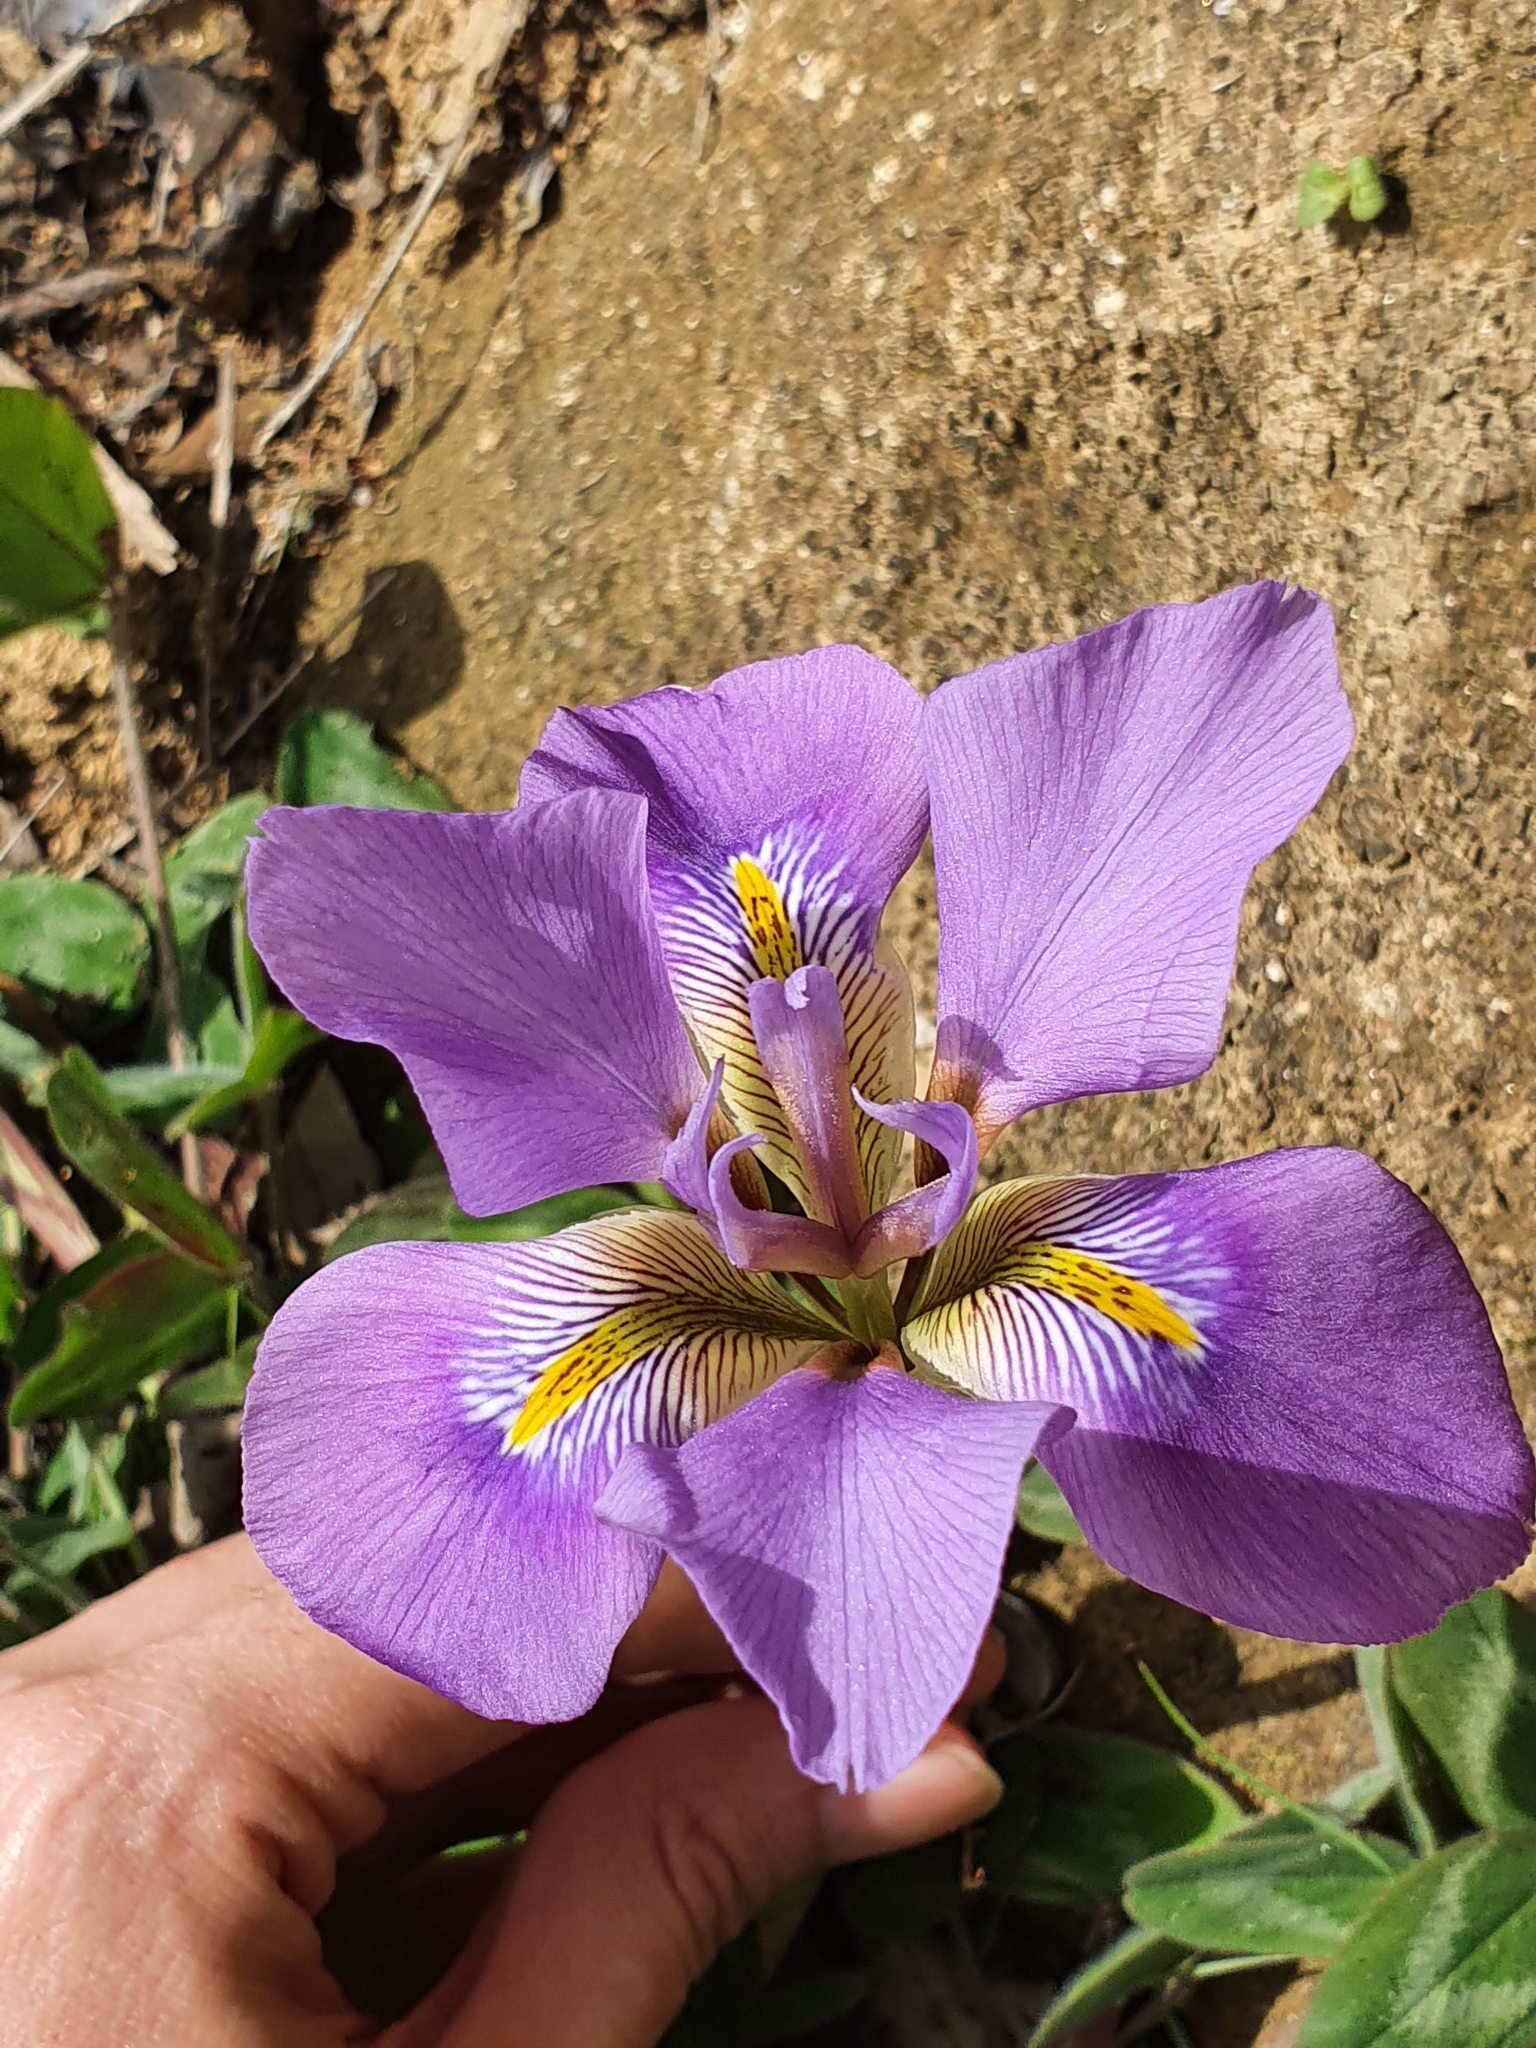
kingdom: Plantae
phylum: Tracheophyta
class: Liliopsida
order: Asparagales
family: Iridaceae
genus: Iris
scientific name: Iris unguicularis
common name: Algerian iris
